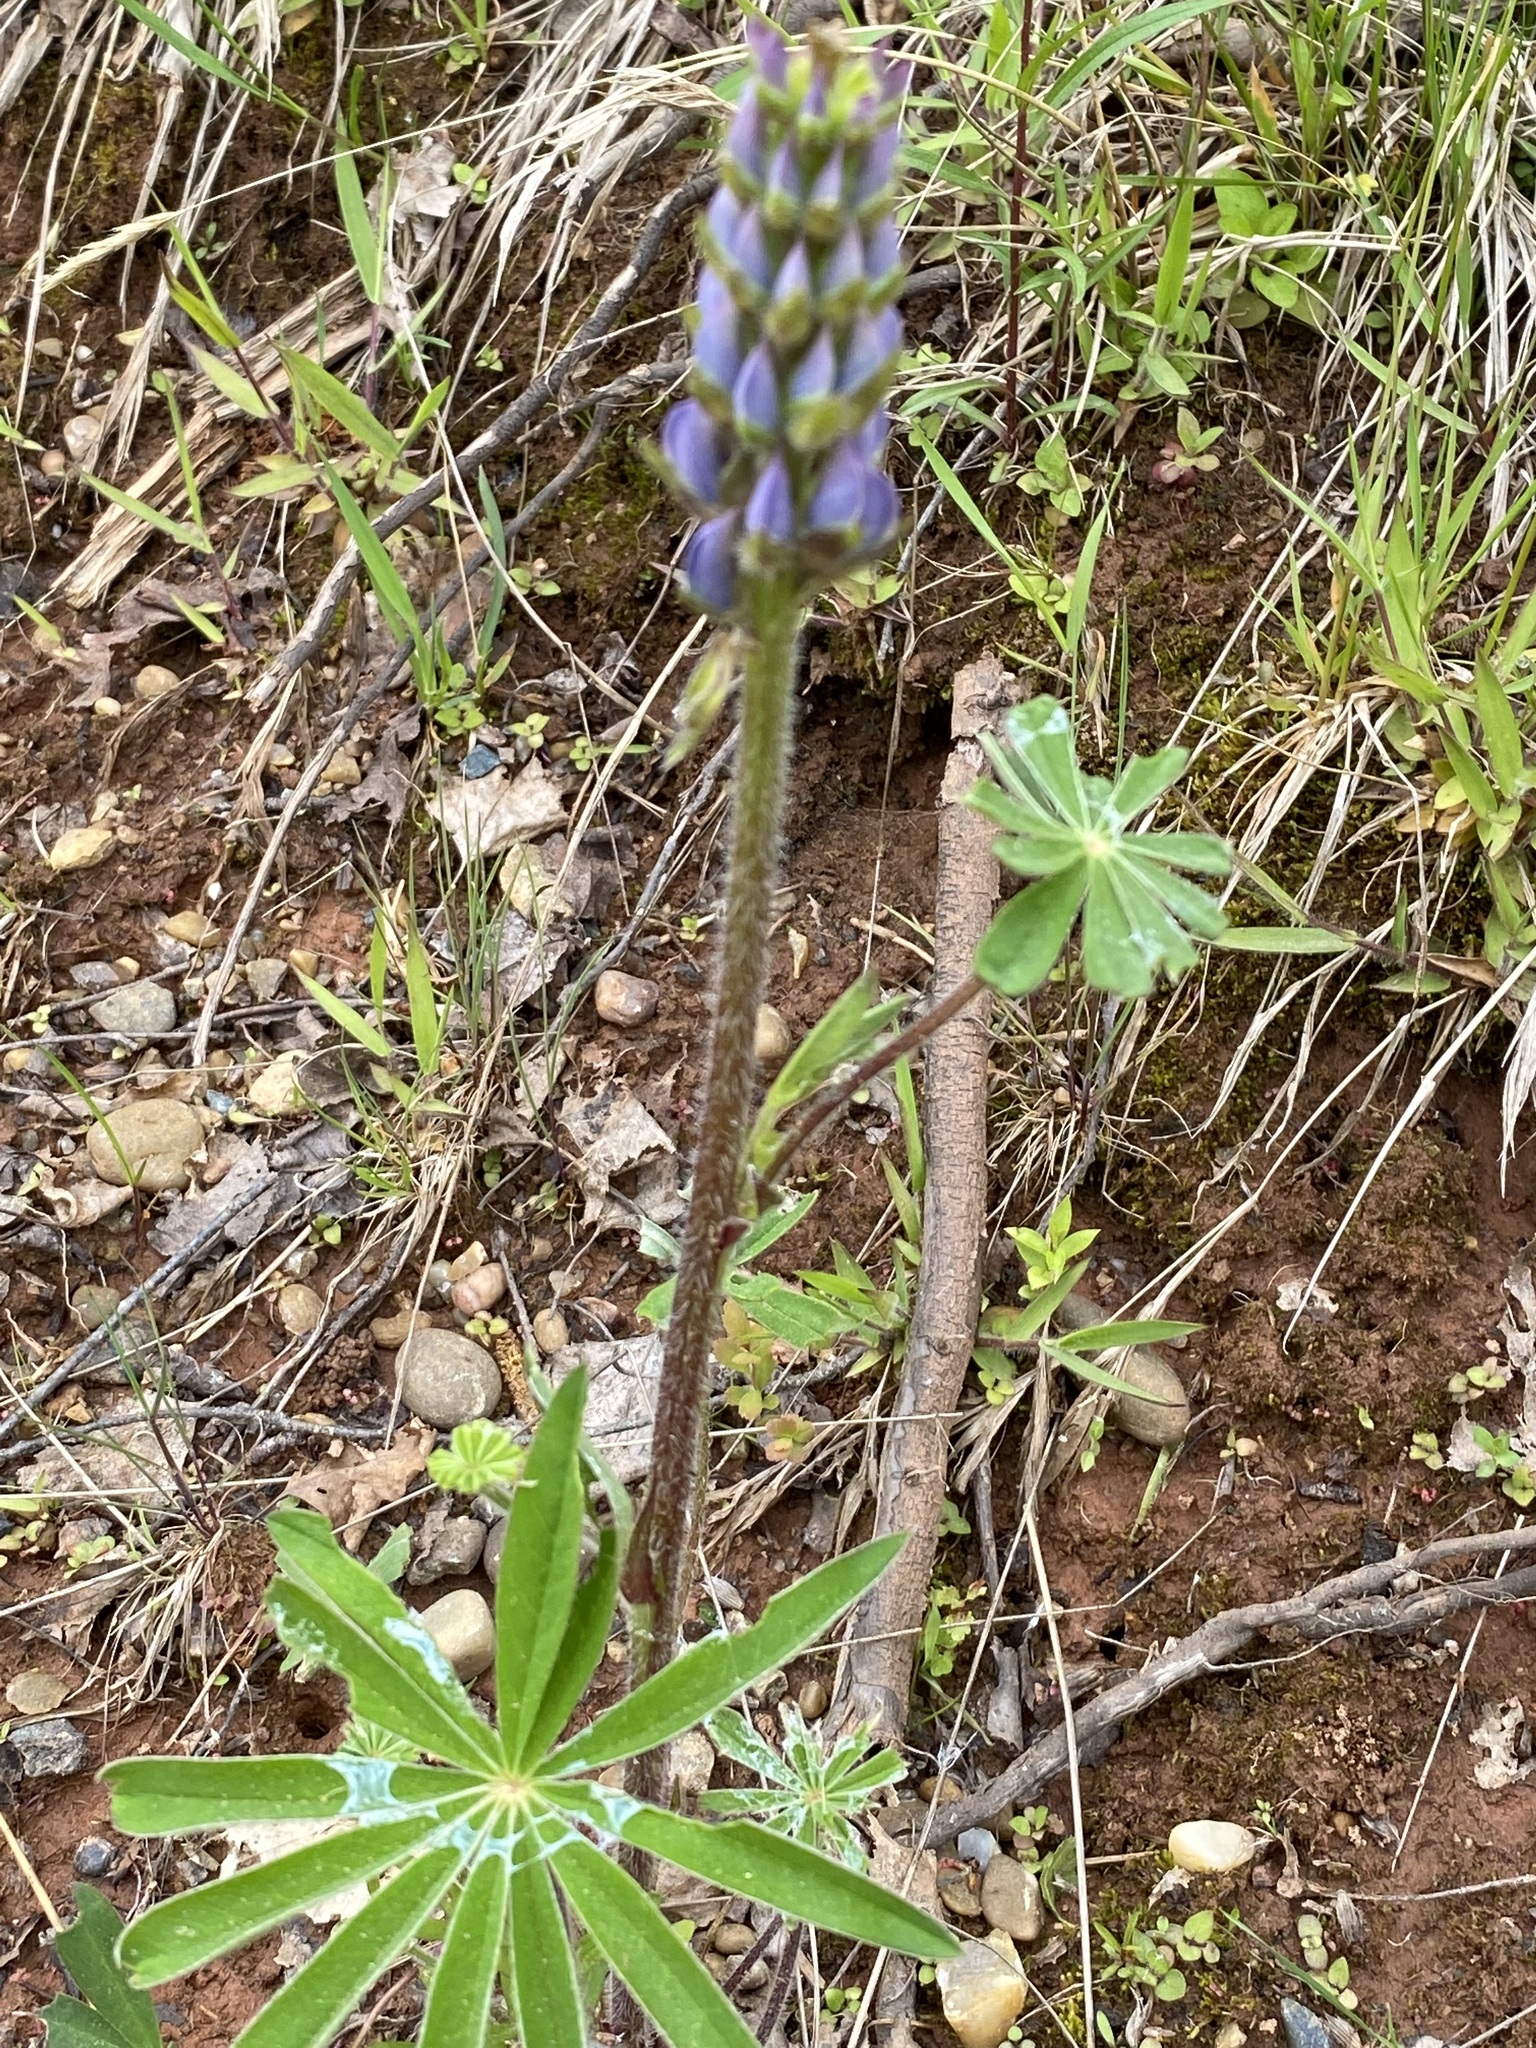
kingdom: Plantae
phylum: Tracheophyta
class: Magnoliopsida
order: Fabales
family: Fabaceae
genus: Lupinus
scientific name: Lupinus polyphyllus
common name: Garden lupin
